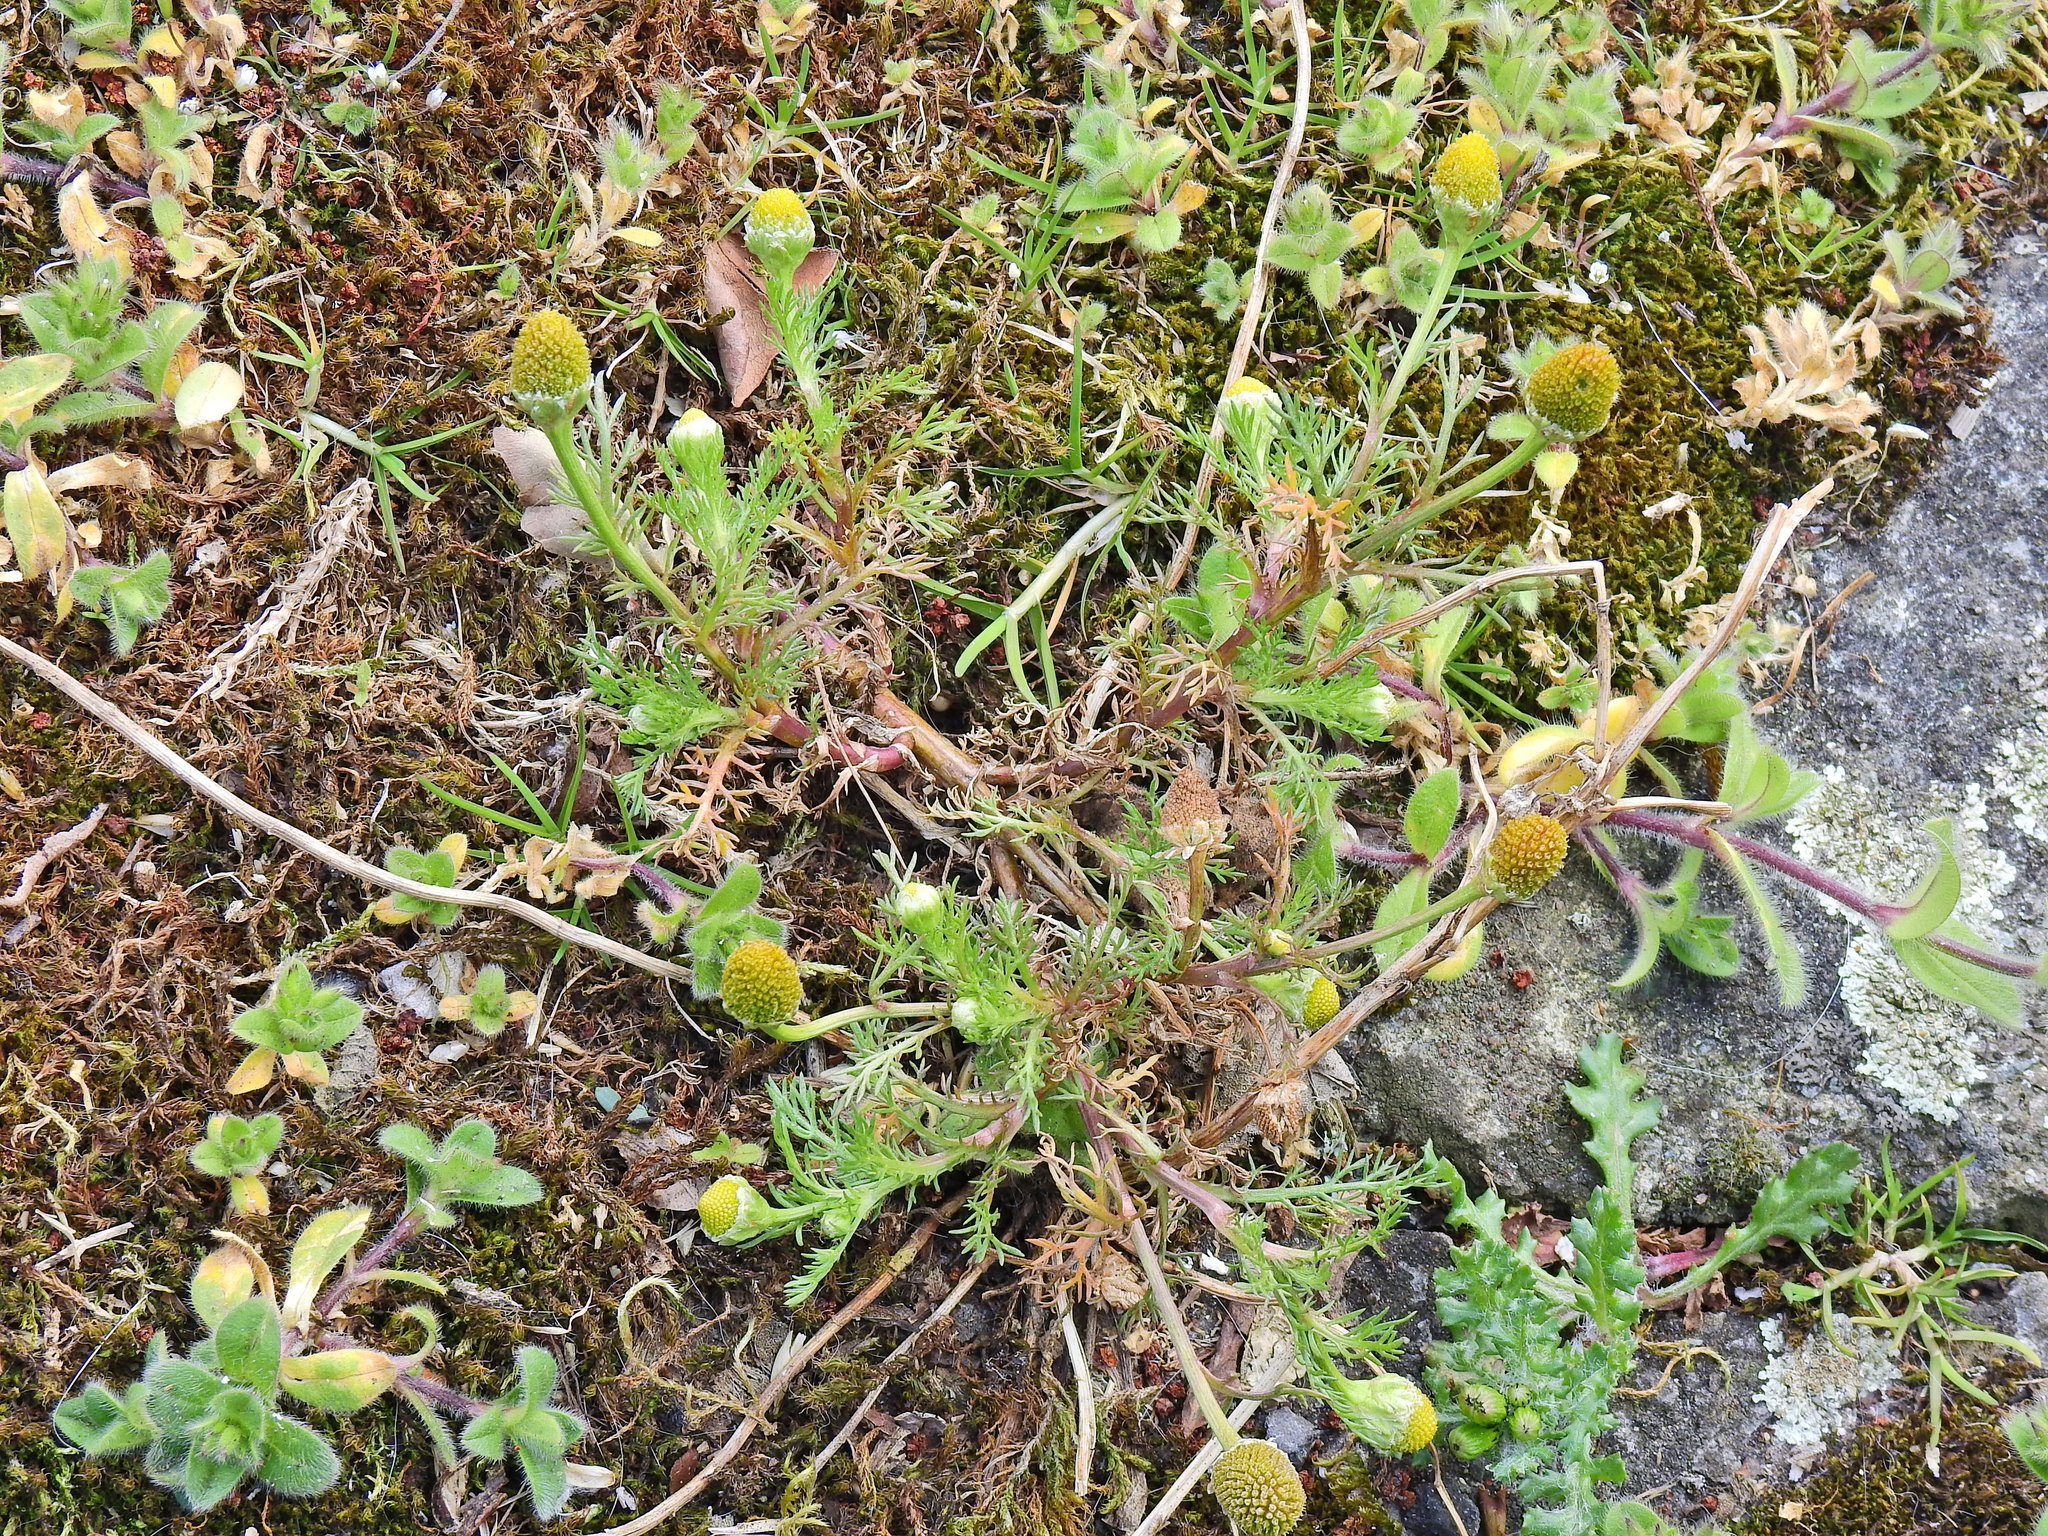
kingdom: Plantae
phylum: Tracheophyta
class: Magnoliopsida
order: Asterales
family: Asteraceae
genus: Matricaria
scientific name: Matricaria discoidea
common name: Disc mayweed
